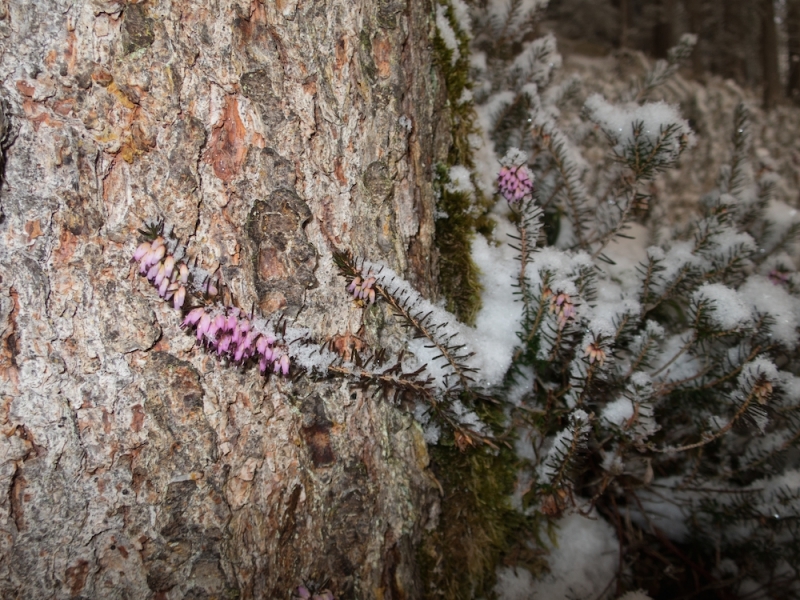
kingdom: Plantae
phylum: Tracheophyta
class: Magnoliopsida
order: Ericales
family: Ericaceae
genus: Erica
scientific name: Erica carnea
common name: Winter heath
